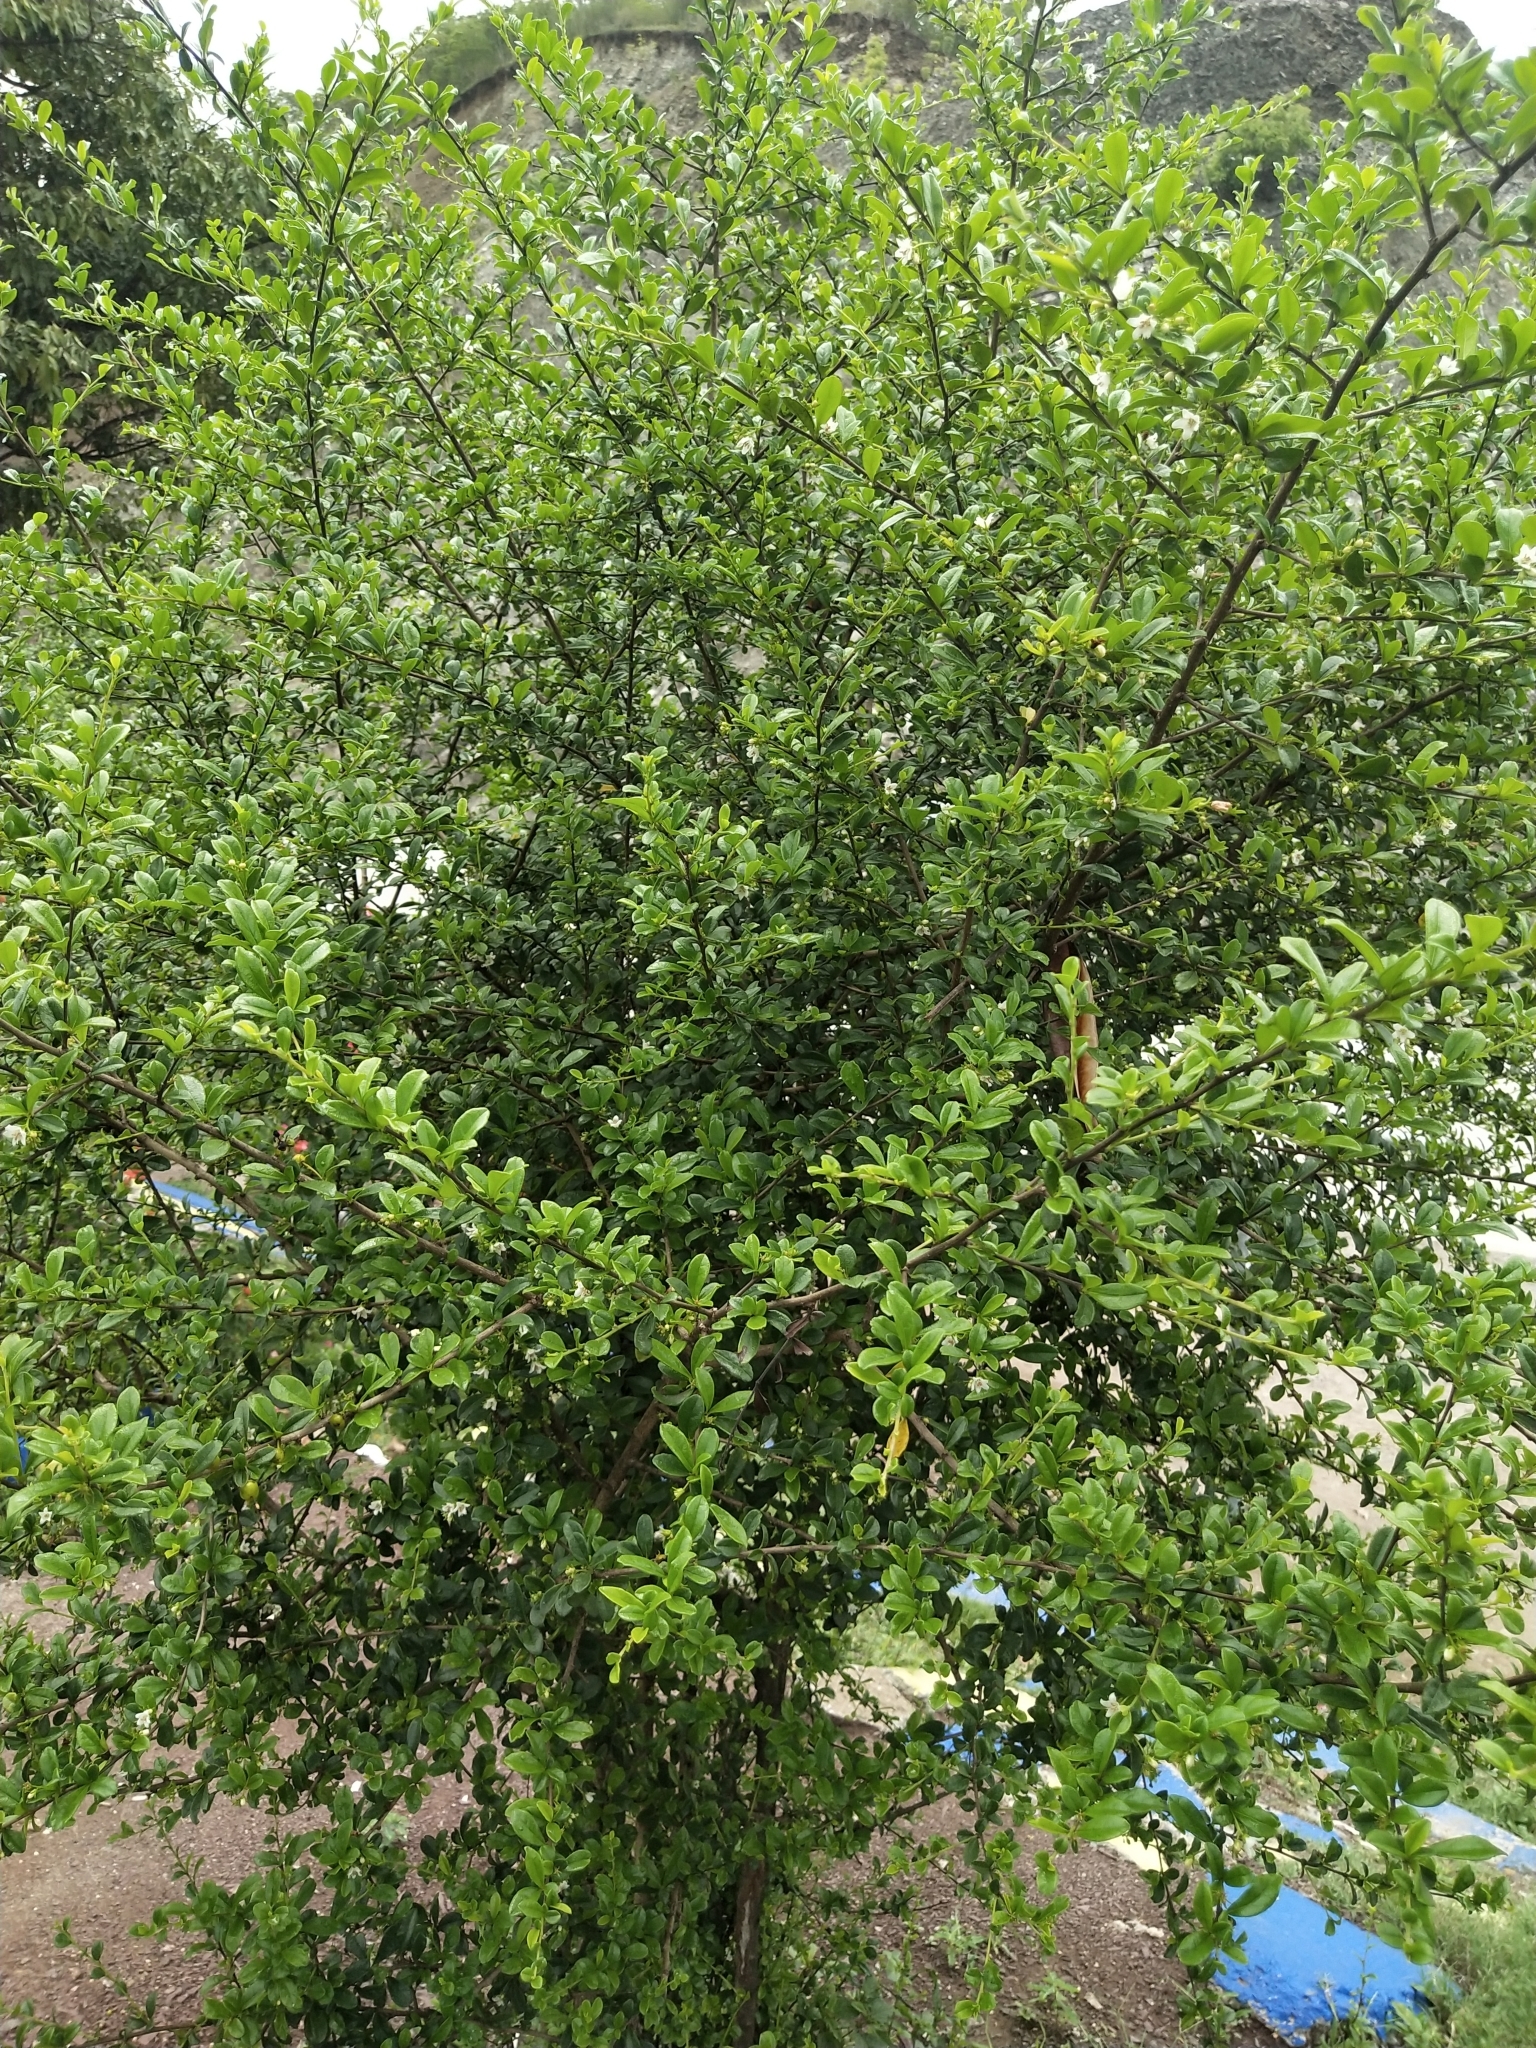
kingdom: Plantae
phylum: Tracheophyta
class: Magnoliopsida
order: Boraginales
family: Ehretiaceae
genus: Ehretia
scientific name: Ehretia microphylla
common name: Fukien-tea
